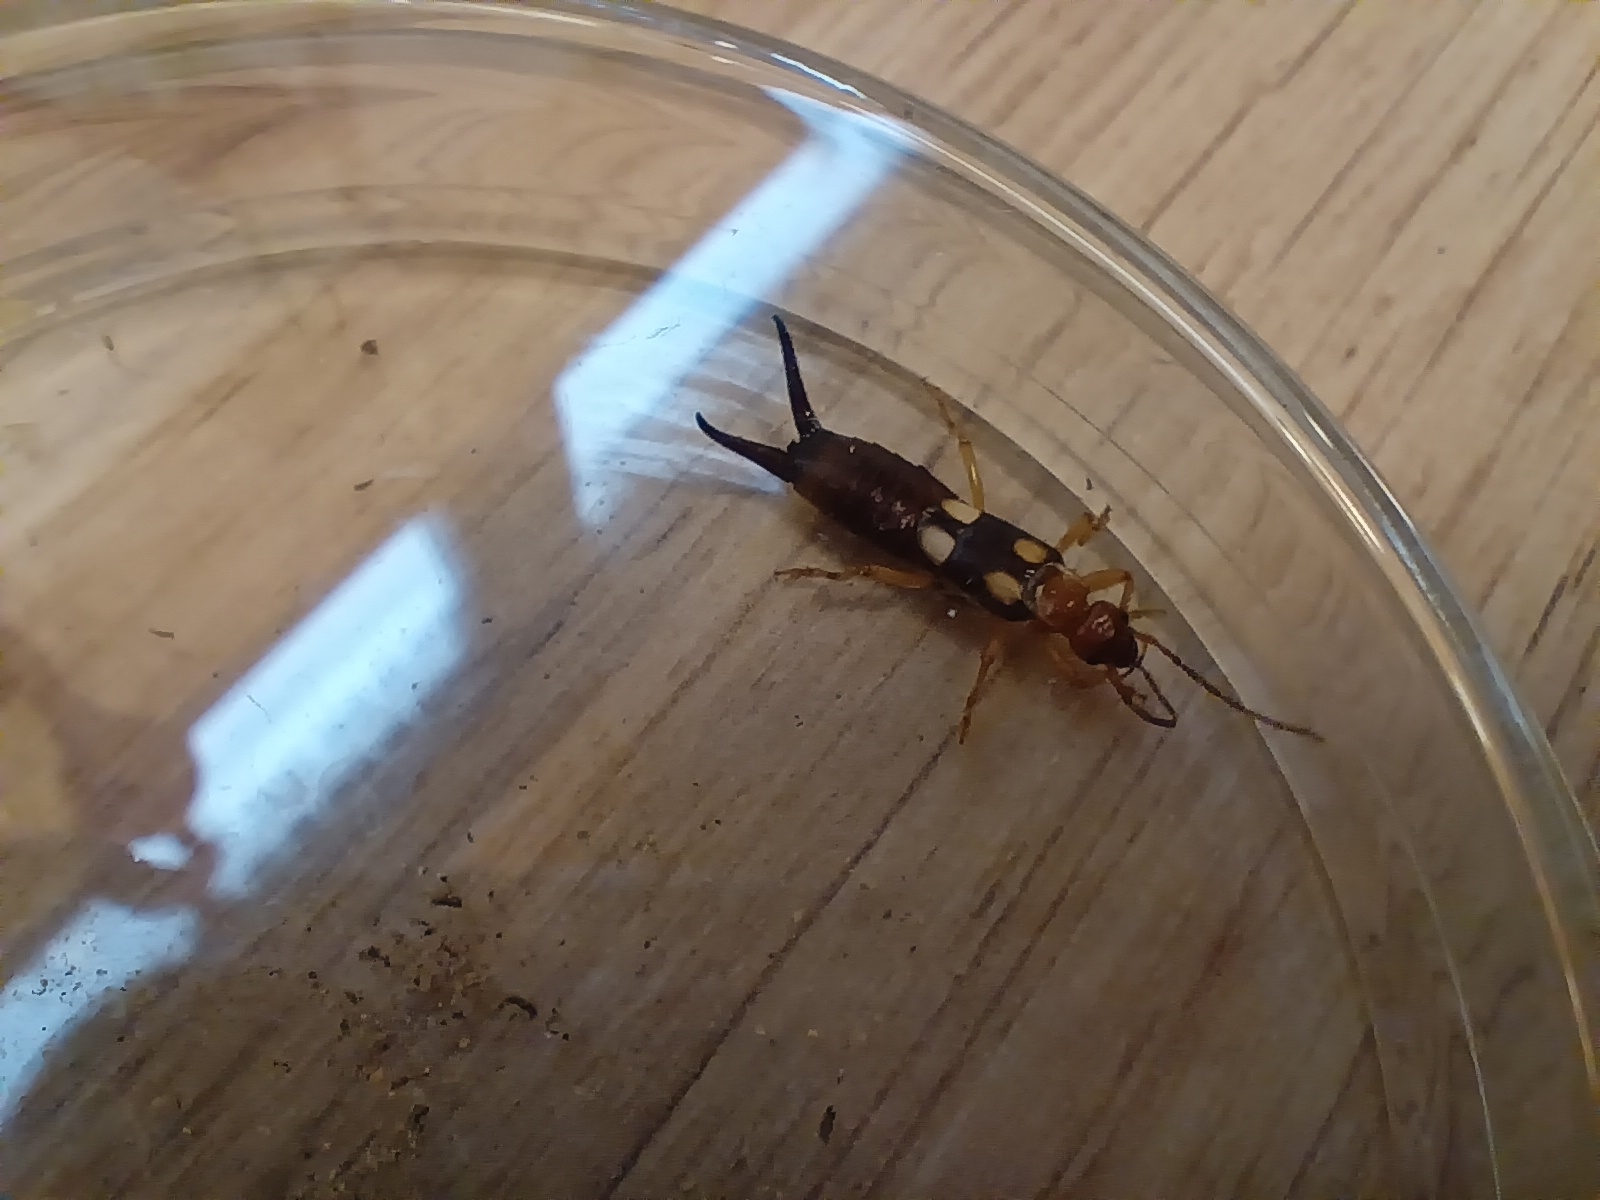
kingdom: Animalia
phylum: Arthropoda
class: Insecta
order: Dermaptera
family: Forficulidae
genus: Forficula
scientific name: Forficula smyrnensis
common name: Smyrna earwig
